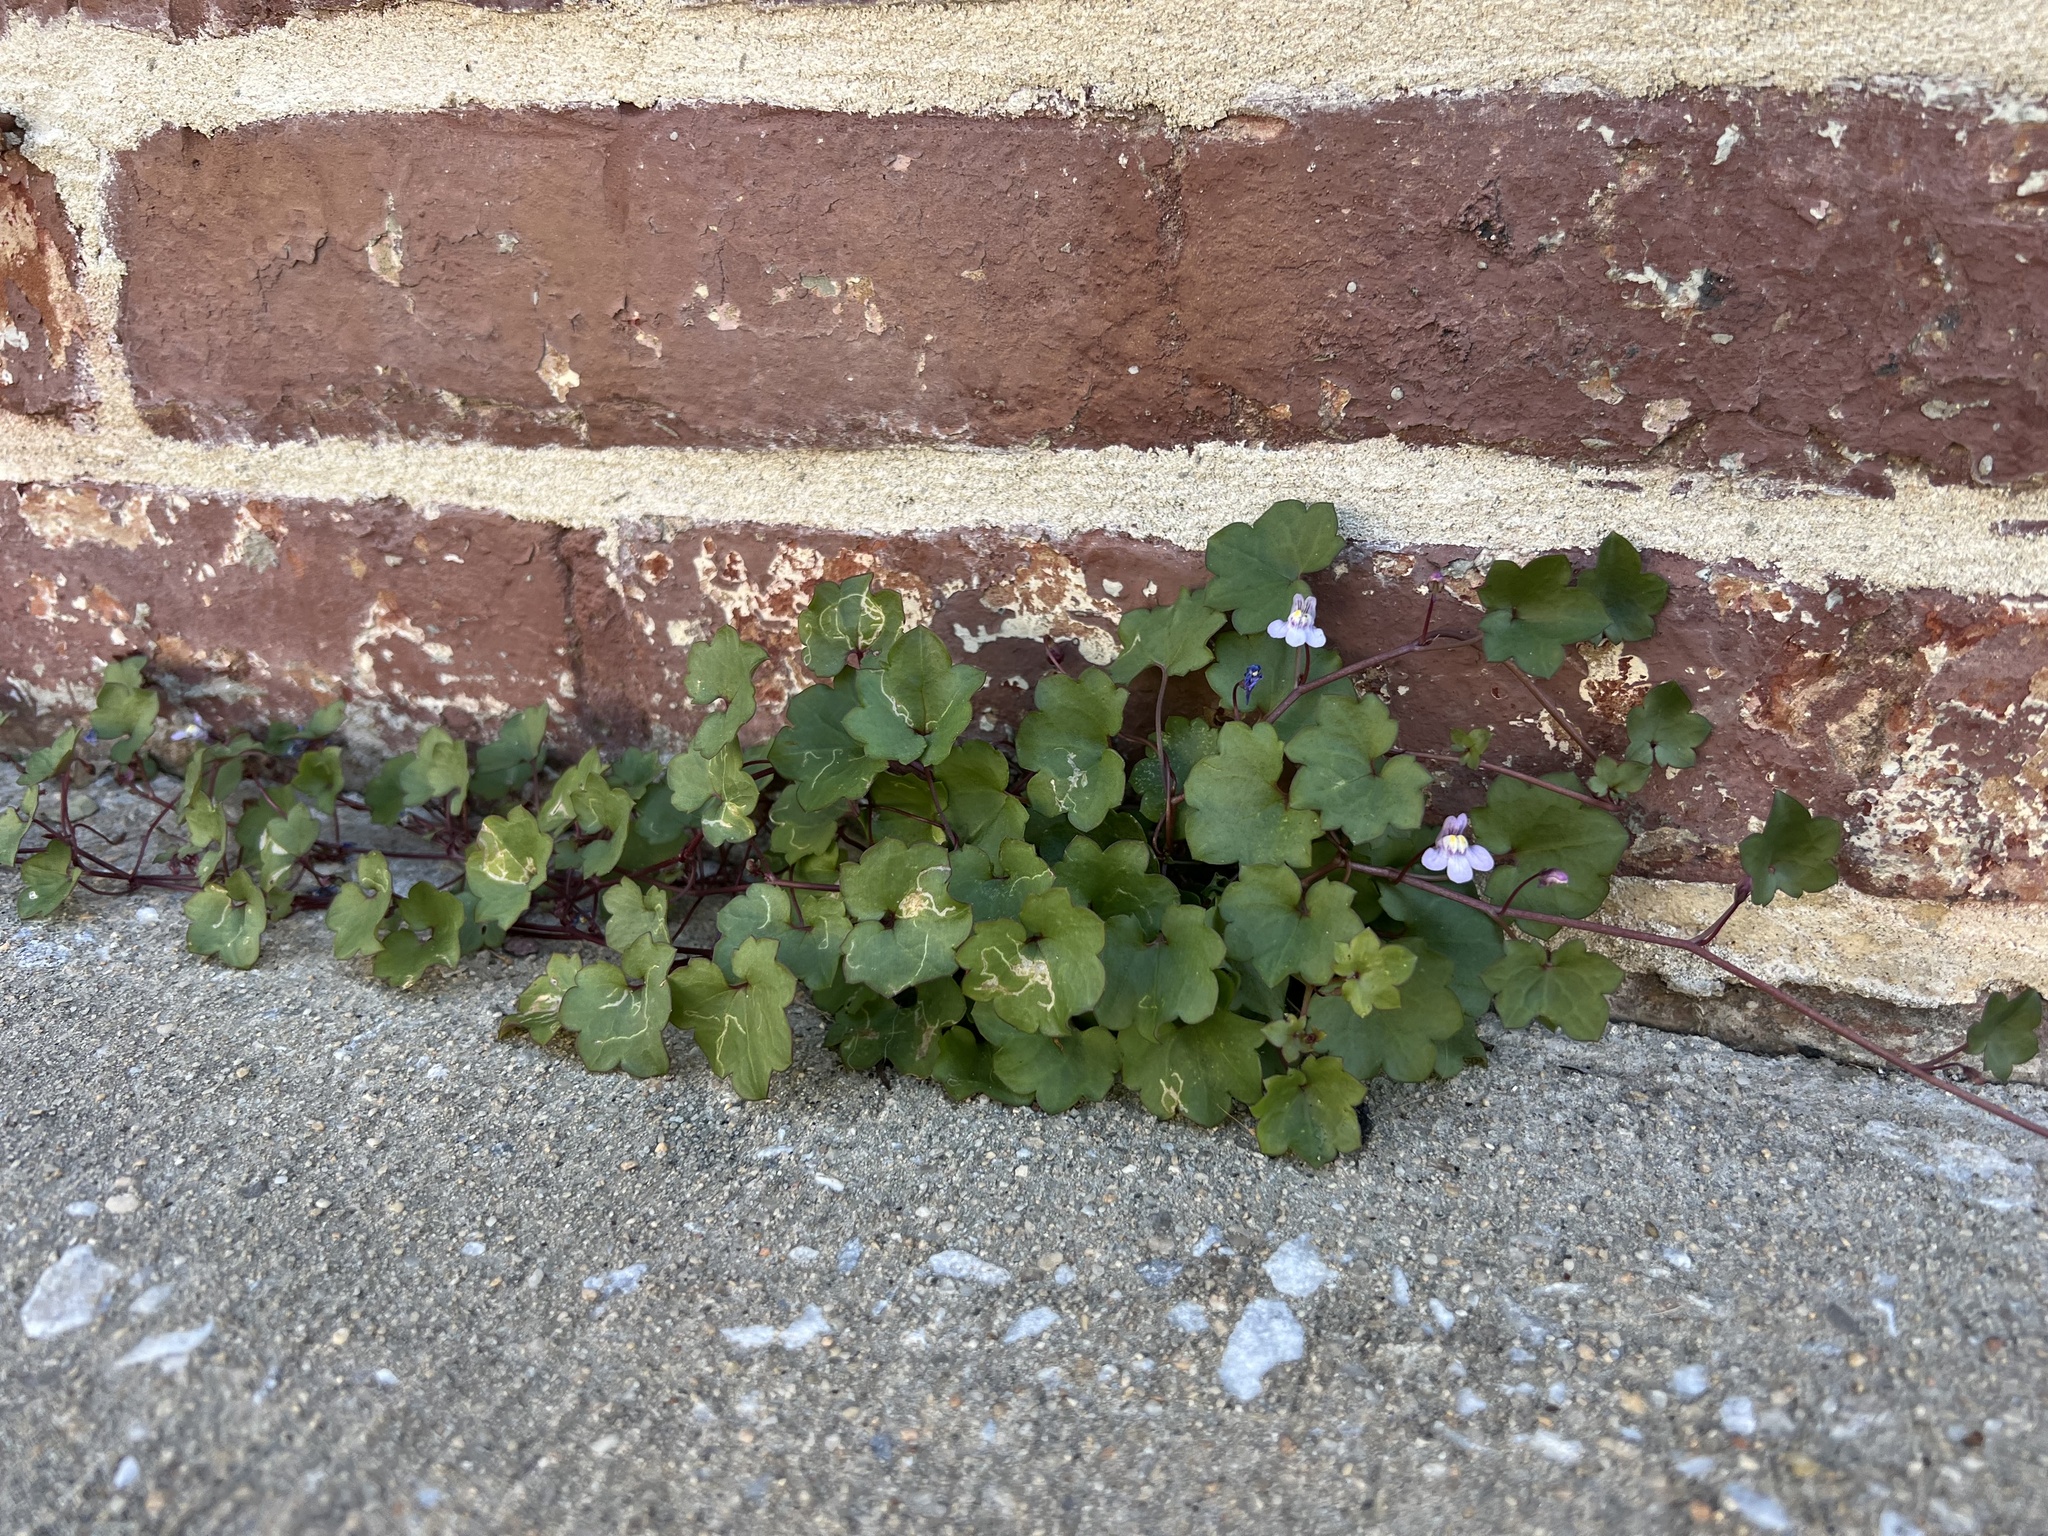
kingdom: Plantae
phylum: Tracheophyta
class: Magnoliopsida
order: Lamiales
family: Plantaginaceae
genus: Cymbalaria
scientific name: Cymbalaria muralis
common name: Ivy-leaved toadflax
